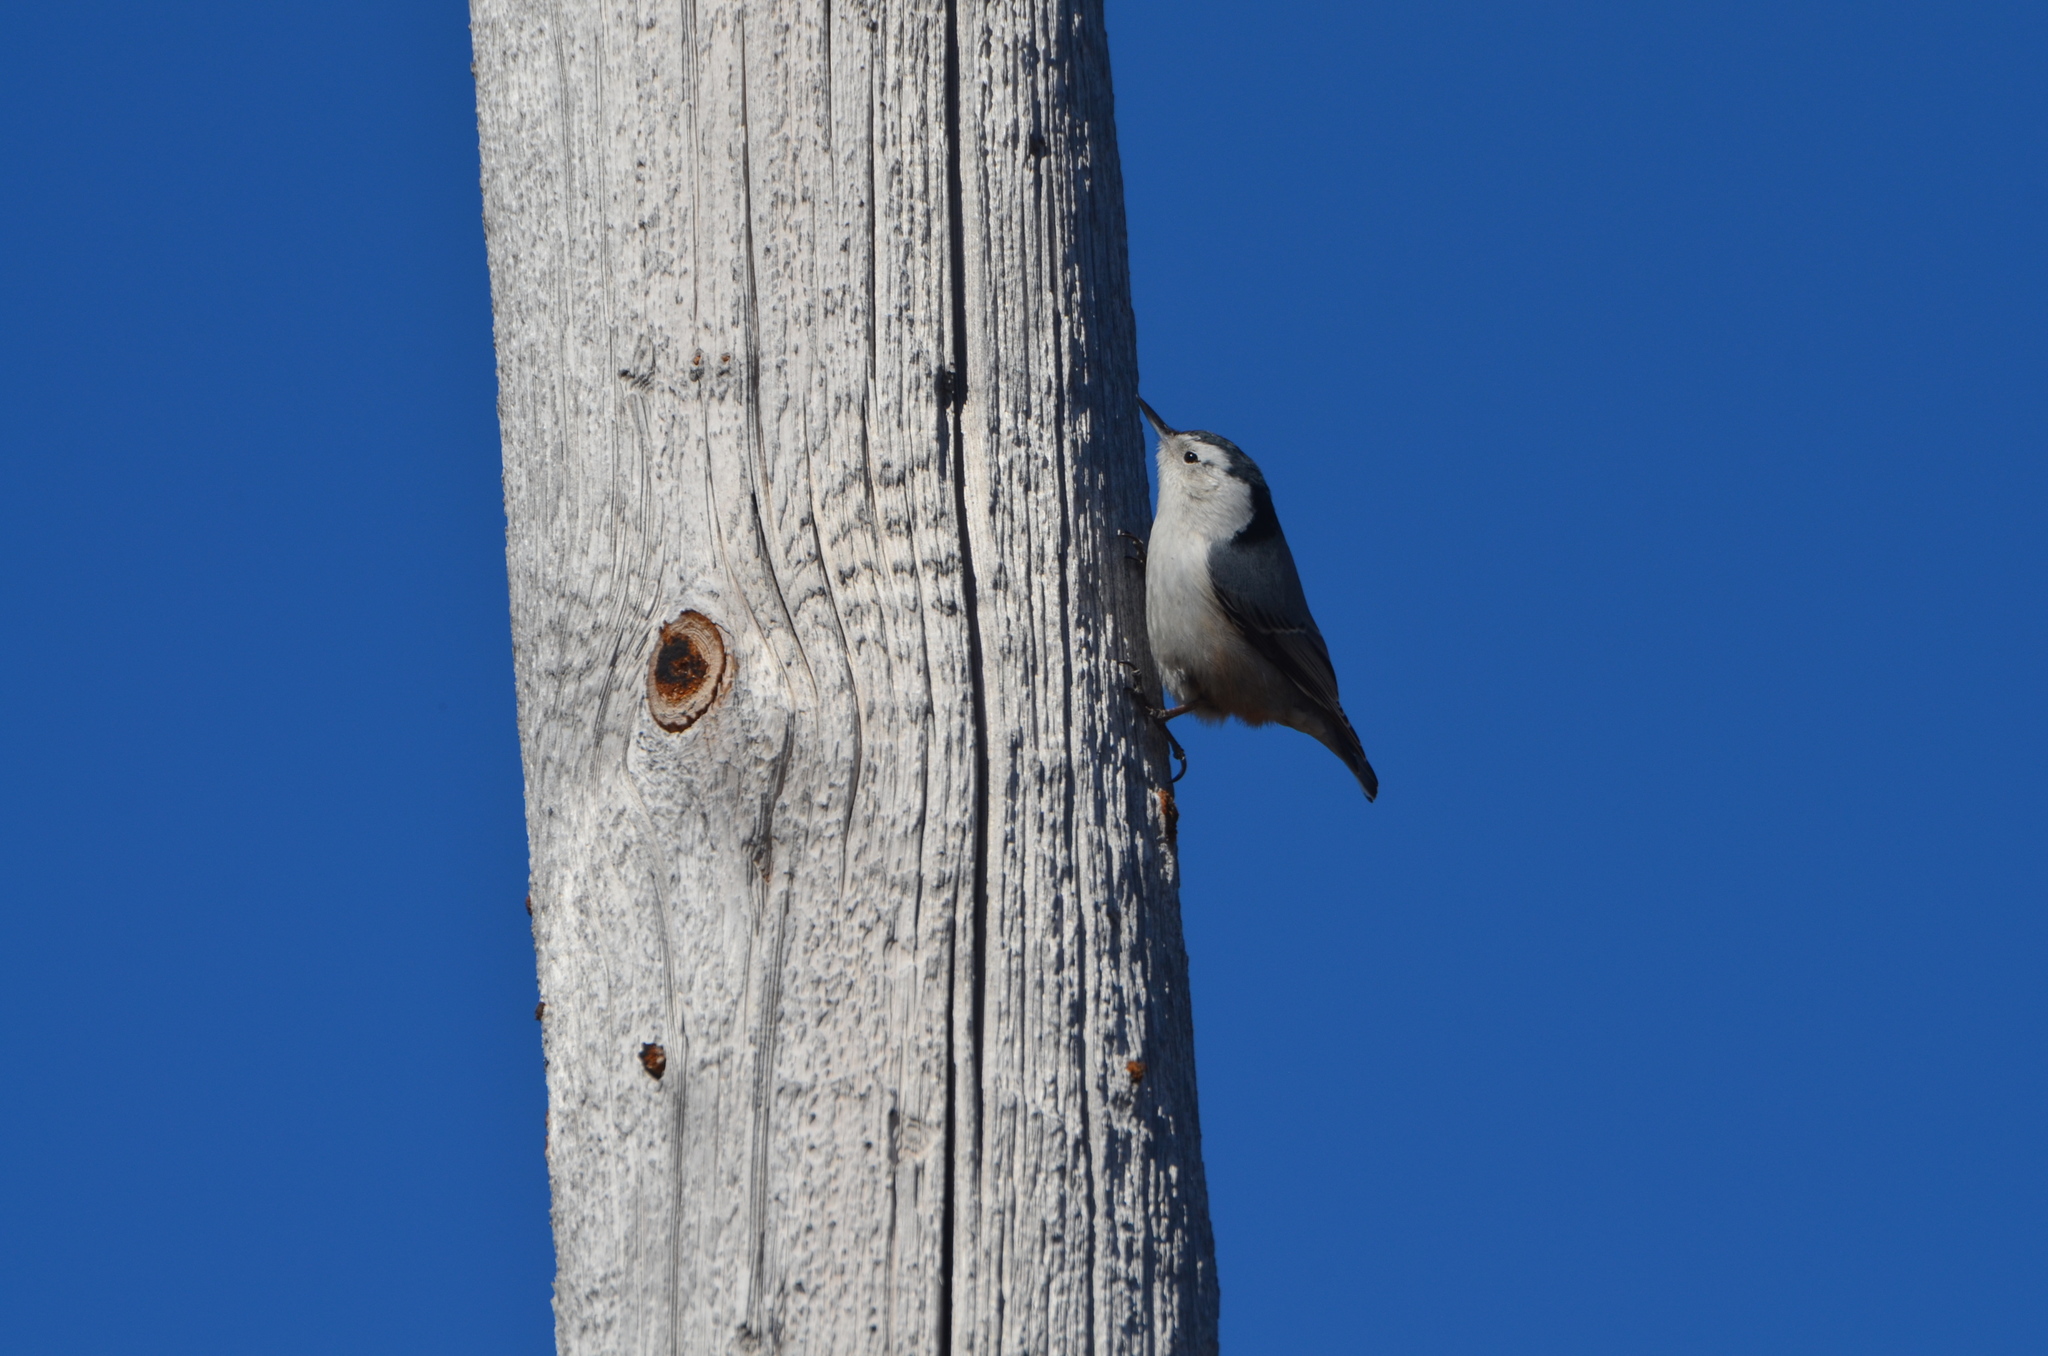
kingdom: Animalia
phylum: Chordata
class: Aves
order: Passeriformes
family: Sittidae
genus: Sitta
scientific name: Sitta carolinensis
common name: White-breasted nuthatch
